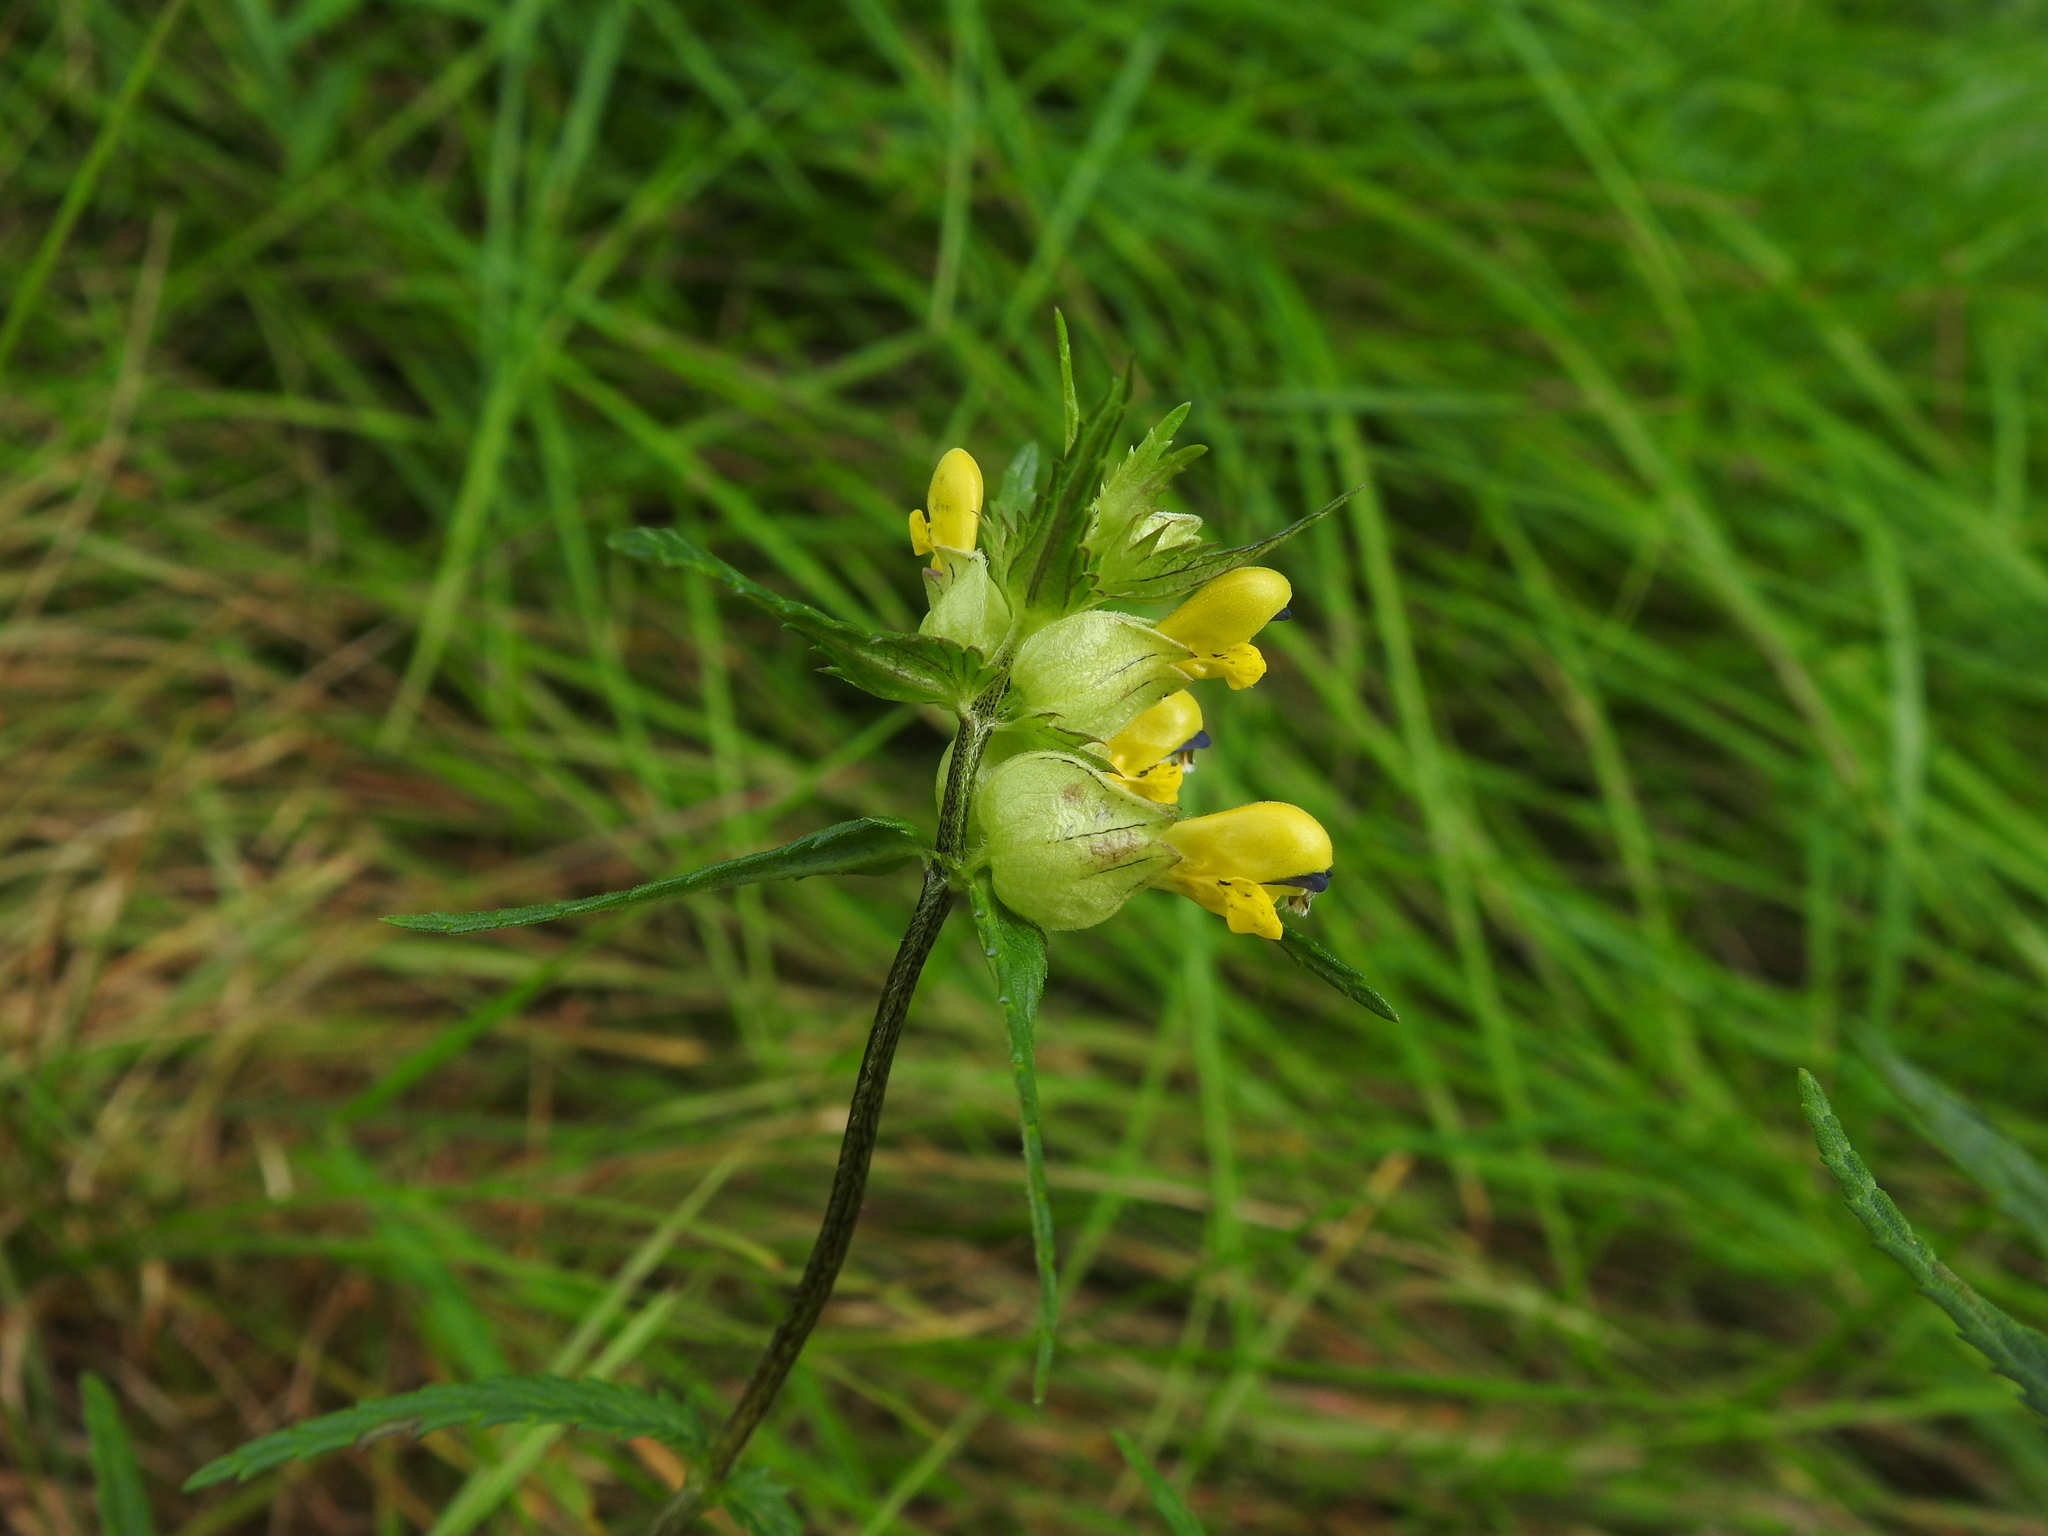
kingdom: Plantae
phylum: Tracheophyta
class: Magnoliopsida
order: Lamiales
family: Orobanchaceae
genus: Rhinanthus
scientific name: Rhinanthus minor
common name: Yellow-rattle
